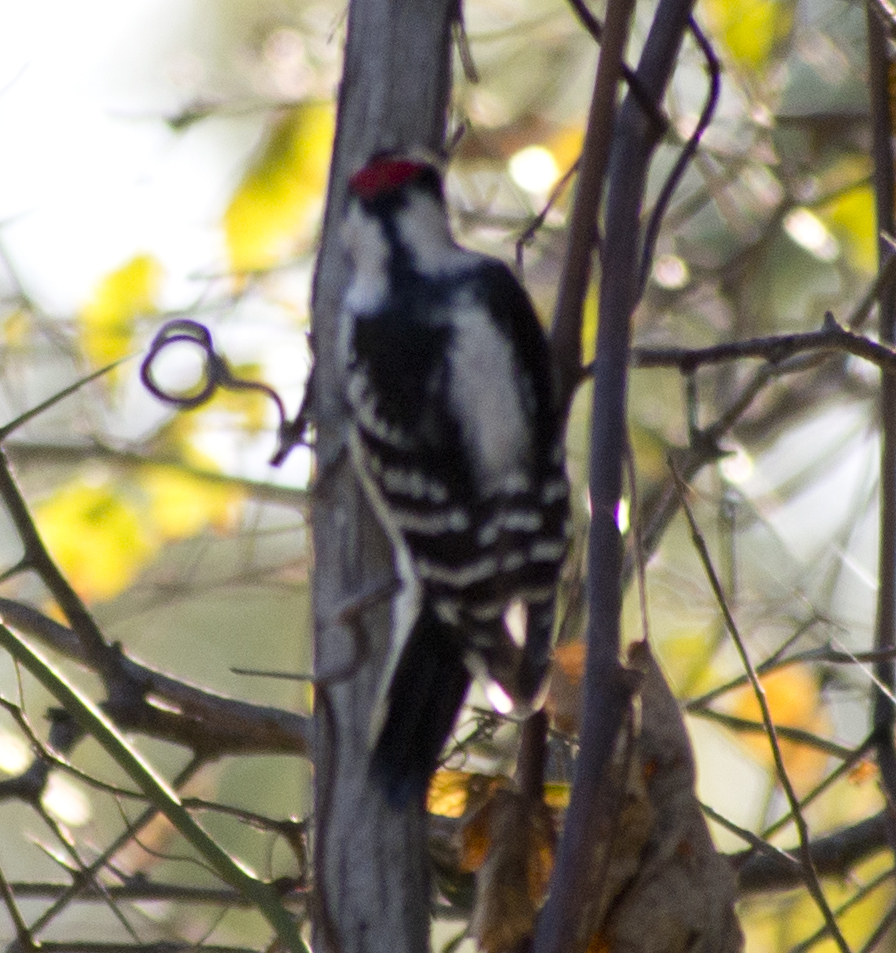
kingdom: Animalia
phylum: Chordata
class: Aves
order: Piciformes
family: Picidae
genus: Dryobates
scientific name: Dryobates pubescens
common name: Downy woodpecker
